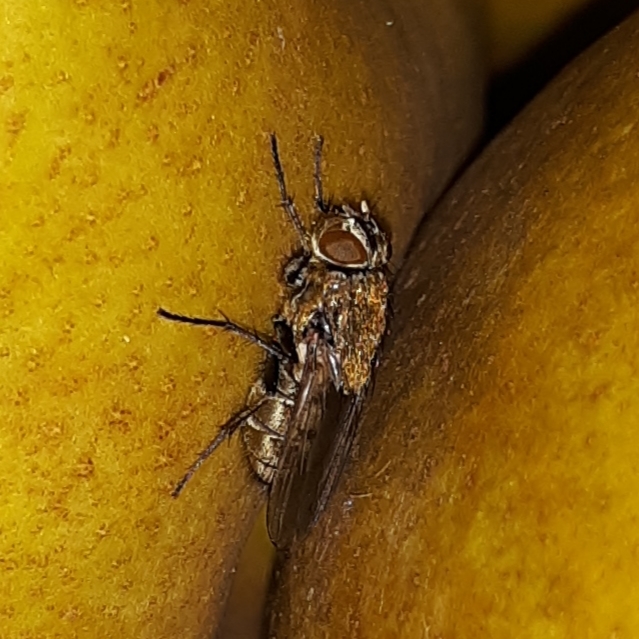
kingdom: Animalia
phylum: Arthropoda
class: Insecta
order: Diptera
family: Polleniidae
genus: Pollenia
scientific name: Pollenia
